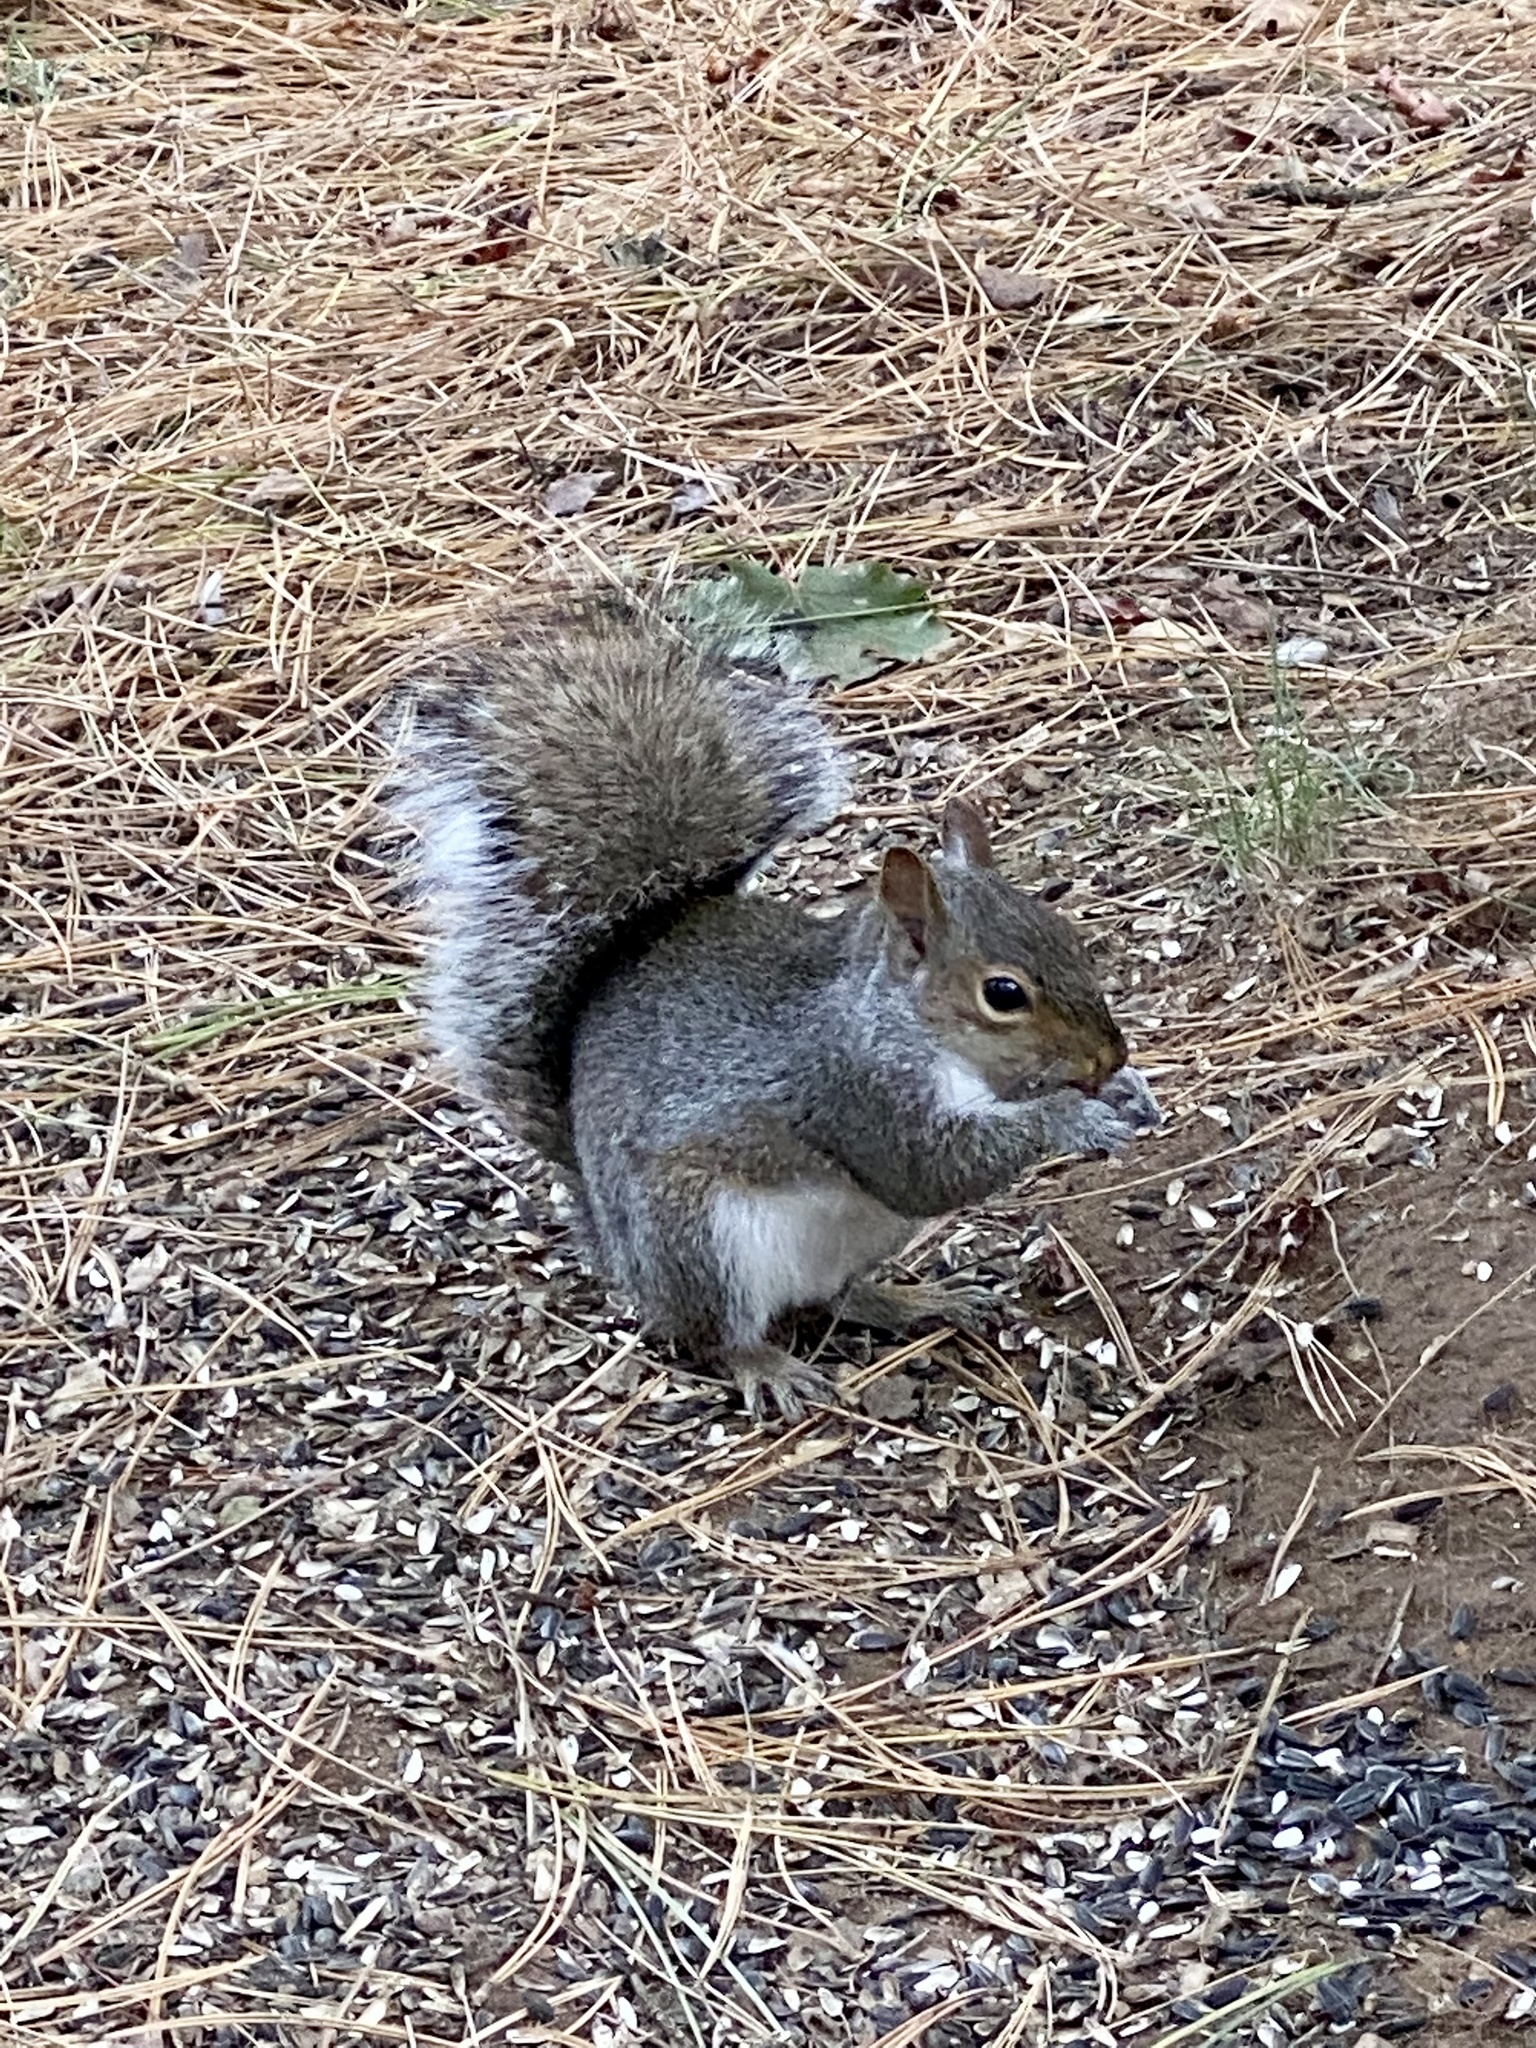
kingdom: Animalia
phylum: Chordata
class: Mammalia
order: Rodentia
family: Sciuridae
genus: Sciurus
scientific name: Sciurus carolinensis
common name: Eastern gray squirrel
